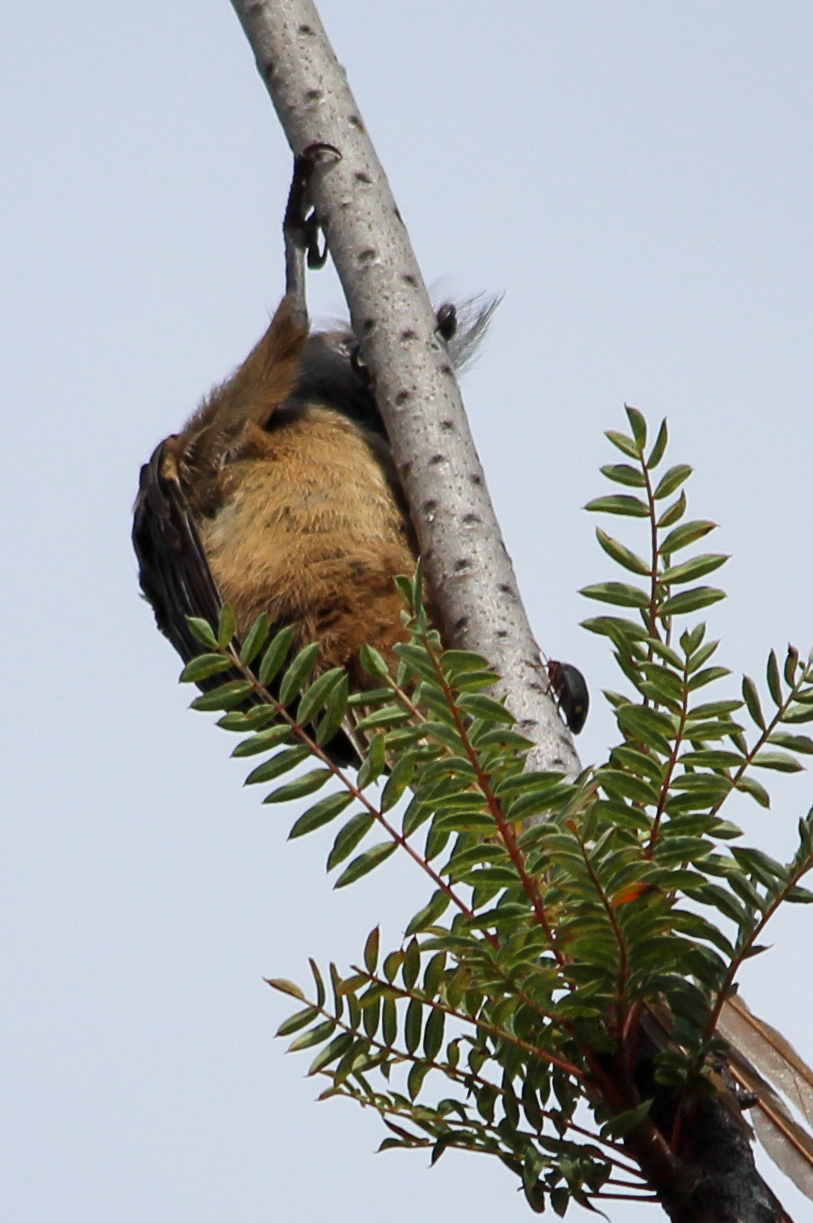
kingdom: Animalia
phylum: Chordata
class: Aves
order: Coliiformes
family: Coliidae
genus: Colius
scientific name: Colius striatus
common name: Speckled mousebird
